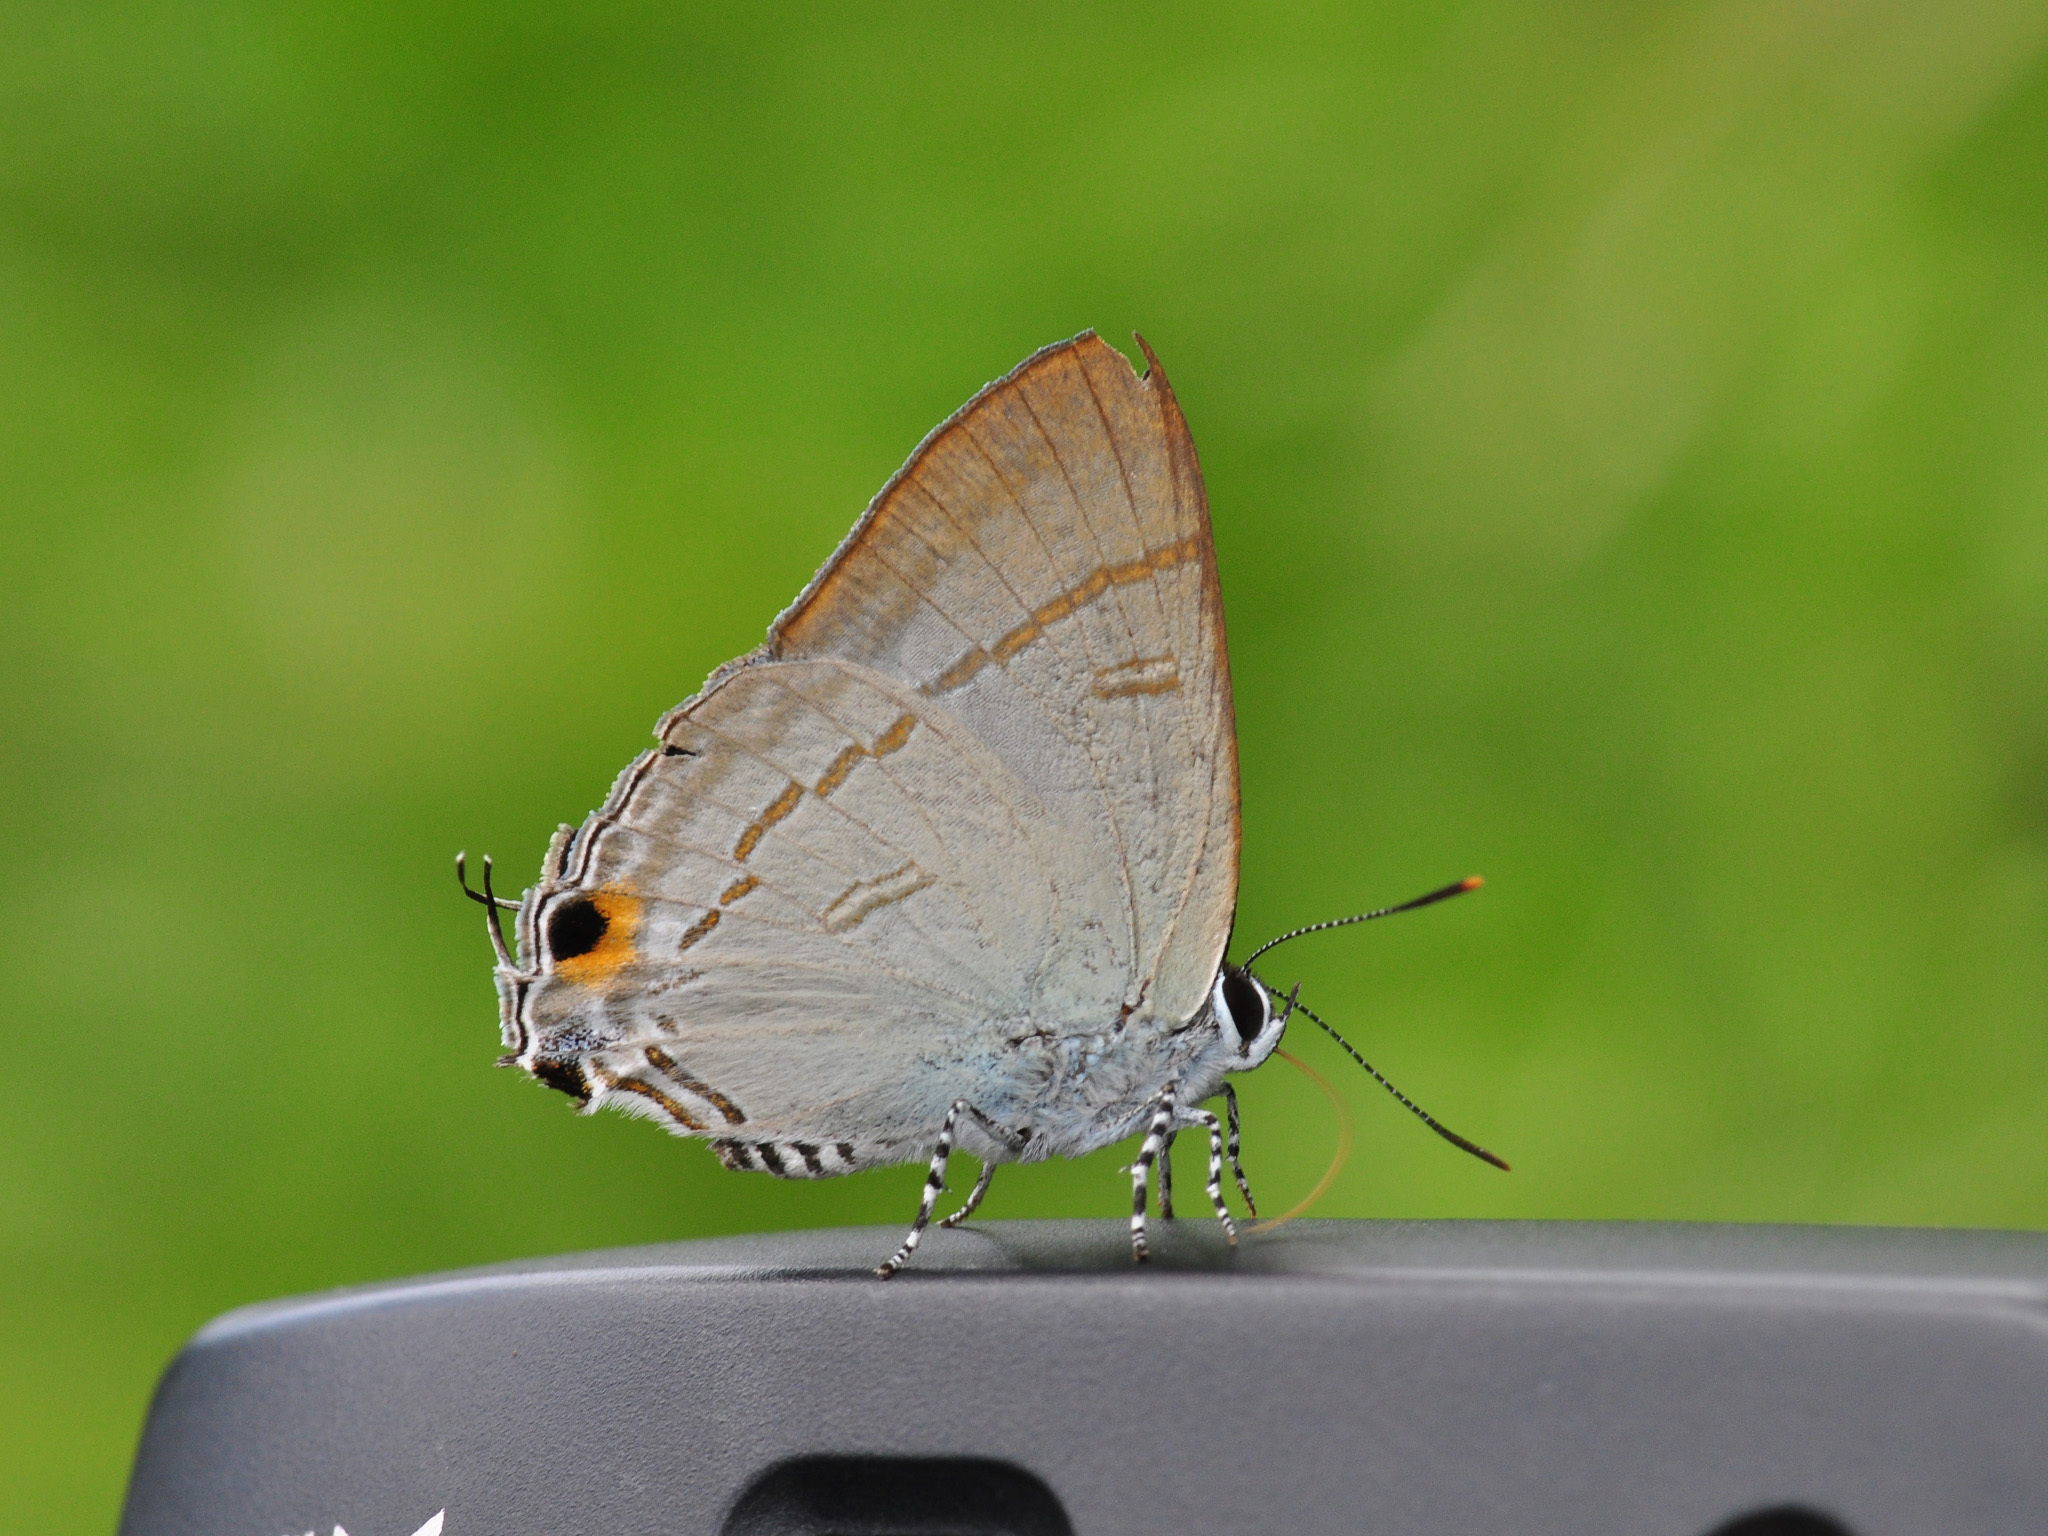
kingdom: Animalia
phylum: Arthropoda
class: Insecta
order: Lepidoptera
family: Lycaenidae
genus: Hypolycaena
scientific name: Hypolycaena erylus
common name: Common tit
